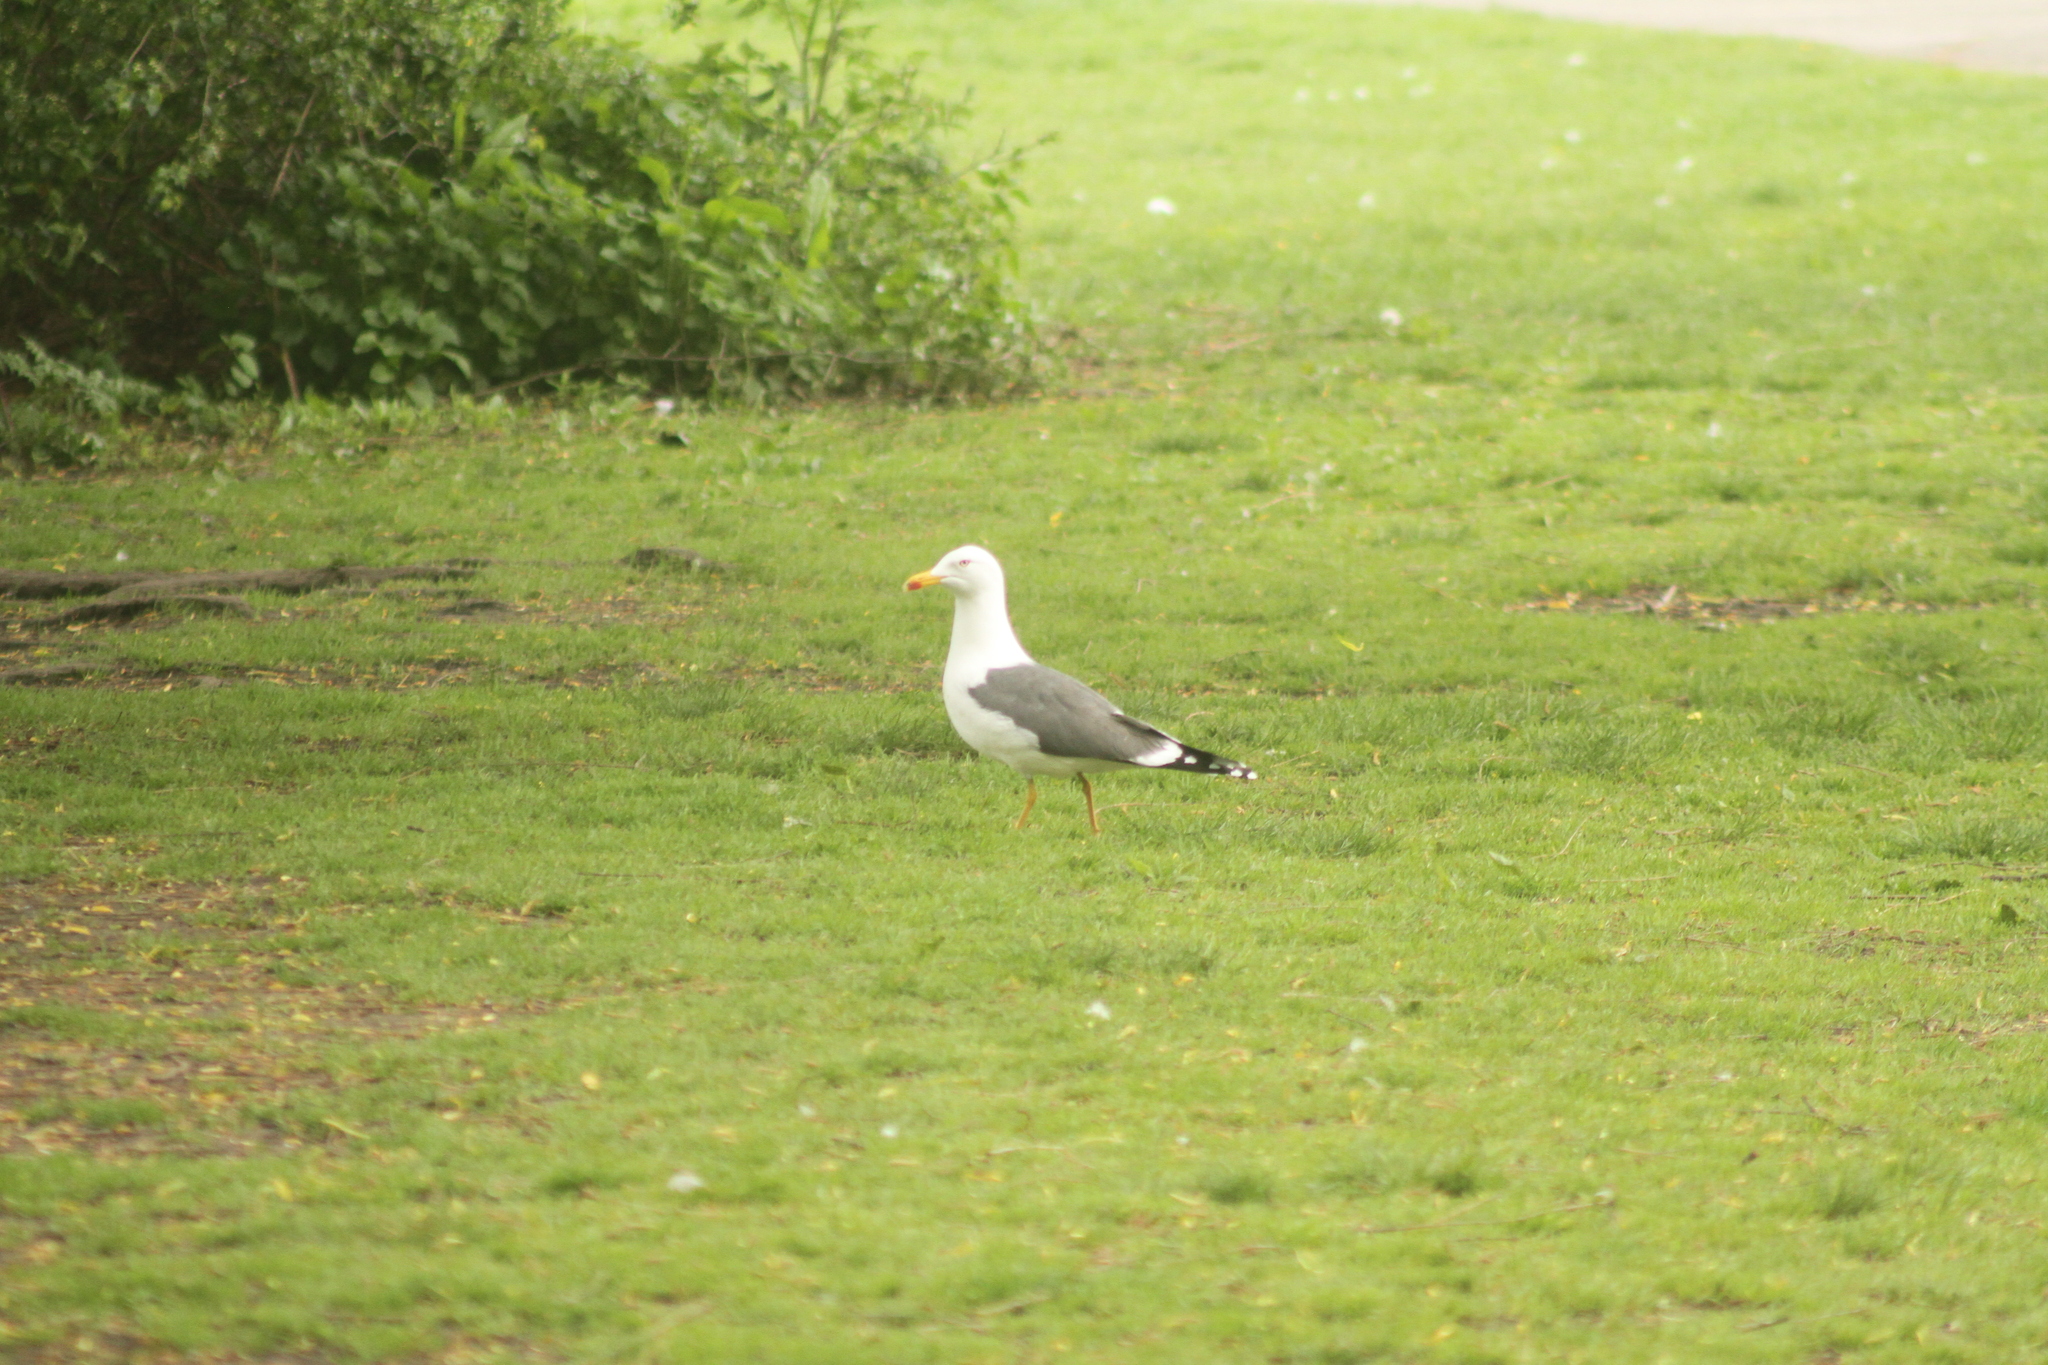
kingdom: Animalia
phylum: Chordata
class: Aves
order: Charadriiformes
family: Laridae
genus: Larus
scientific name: Larus fuscus
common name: Lesser black-backed gull
